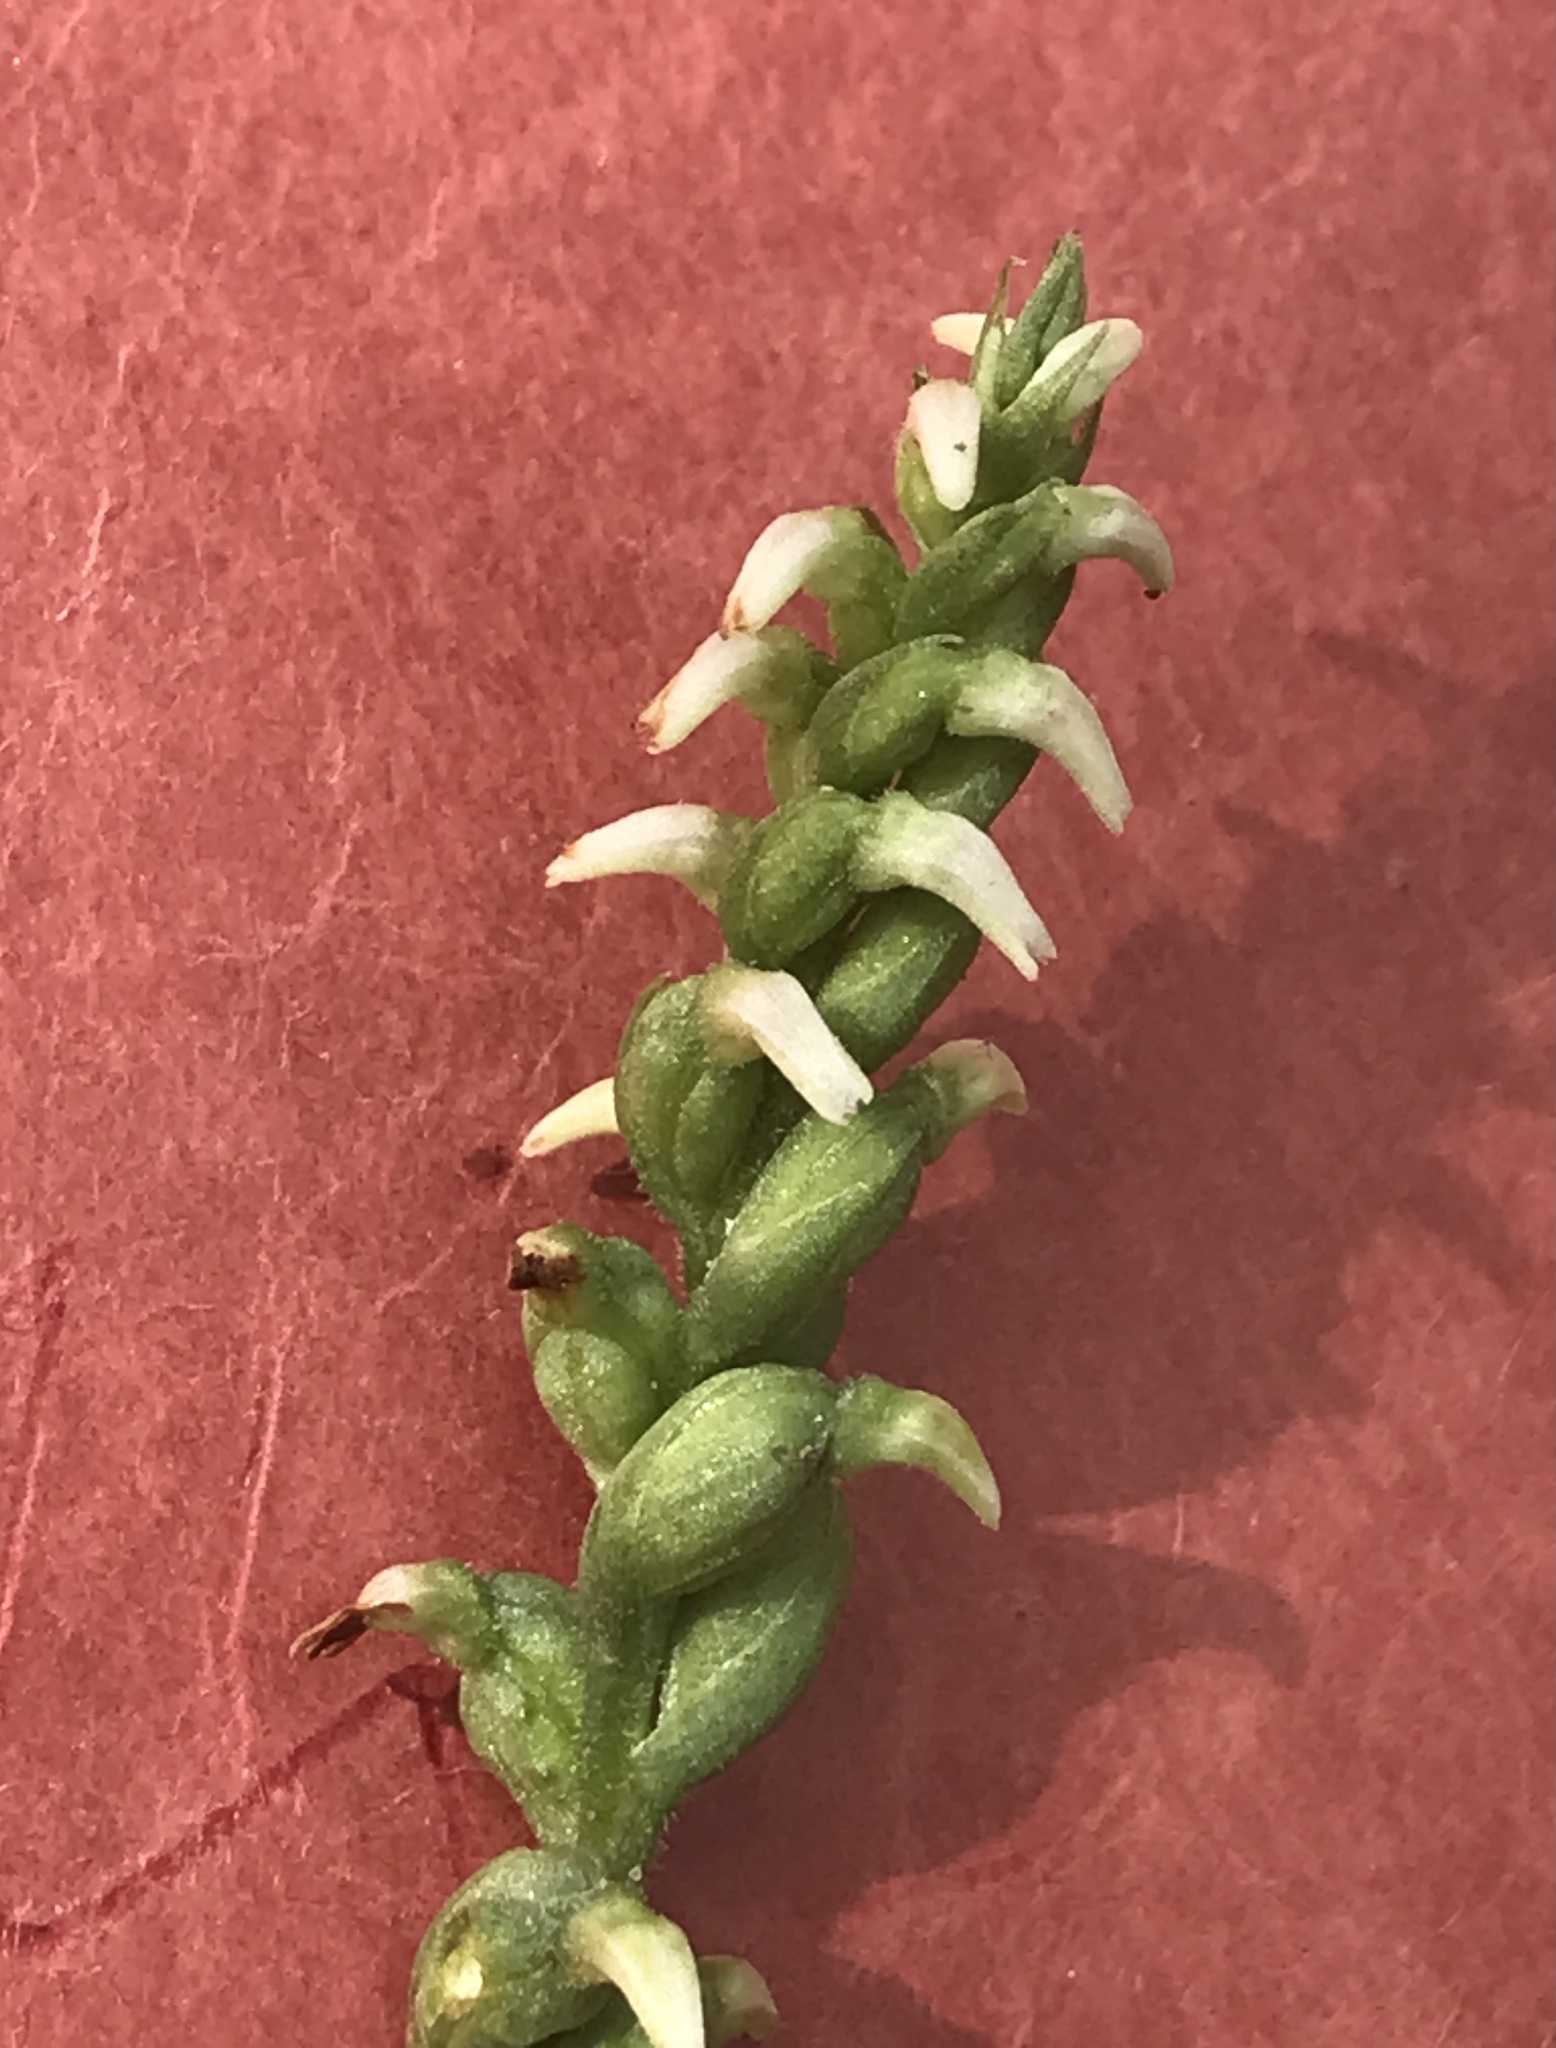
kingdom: Plantae
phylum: Tracheophyta
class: Liliopsida
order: Asparagales
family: Orchidaceae
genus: Spiranthes
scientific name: Spiranthes ovalis
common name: October ladies'-tresses
